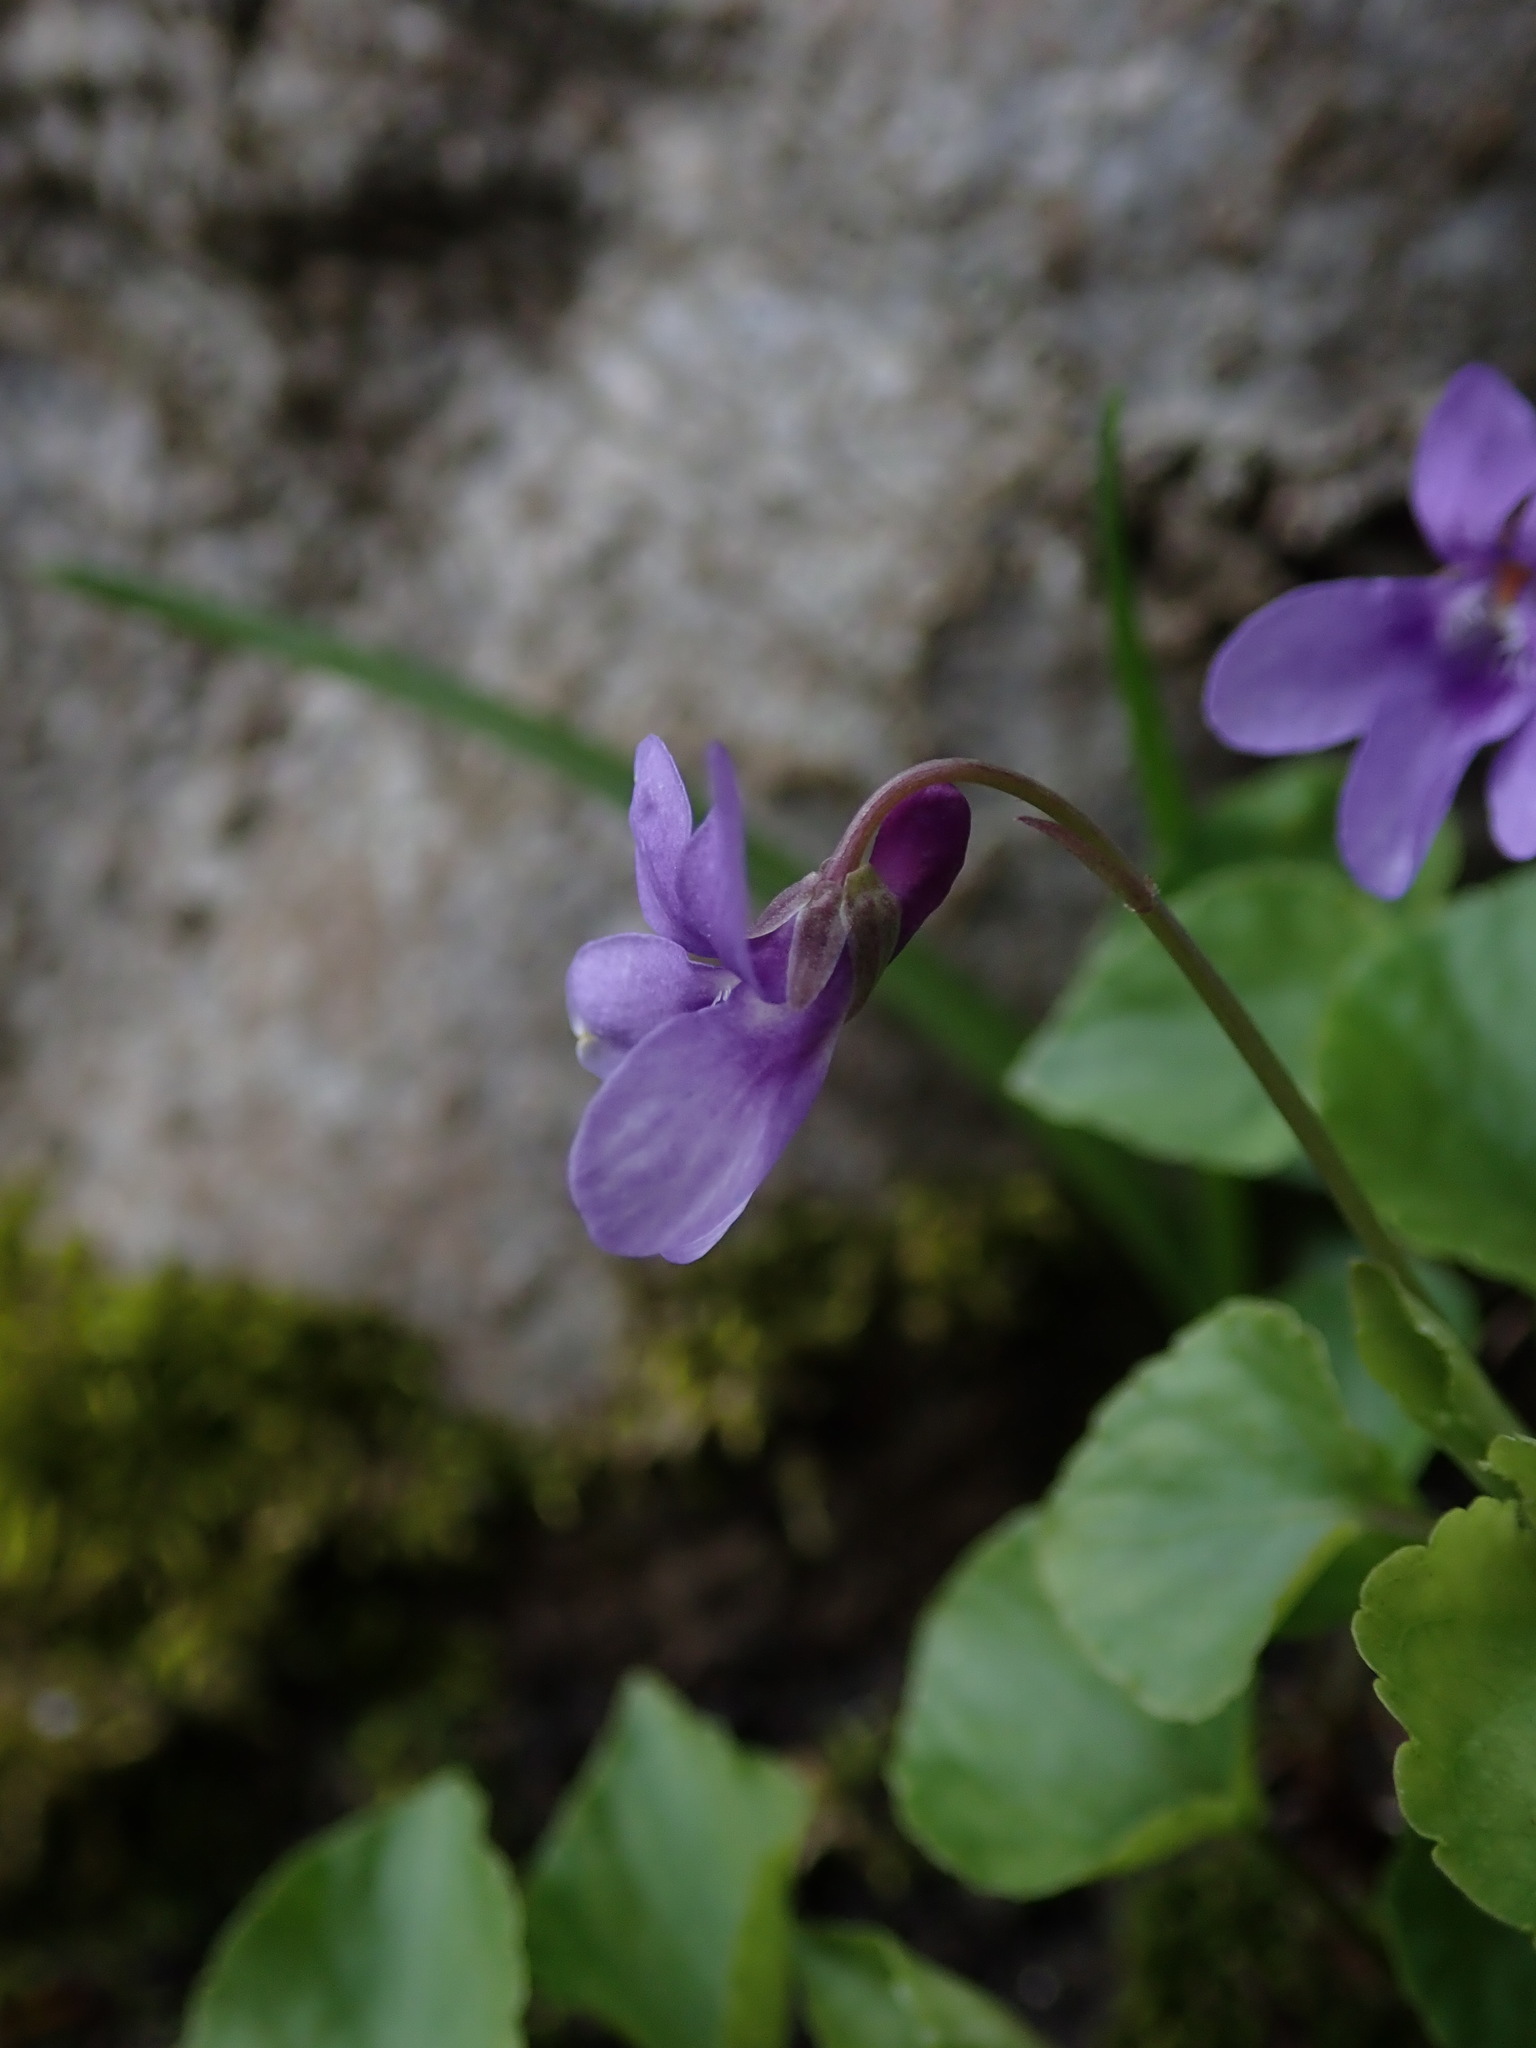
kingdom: Plantae
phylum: Tracheophyta
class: Magnoliopsida
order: Malpighiales
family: Violaceae
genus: Viola
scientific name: Viola reichenbachiana
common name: Early dog-violet
